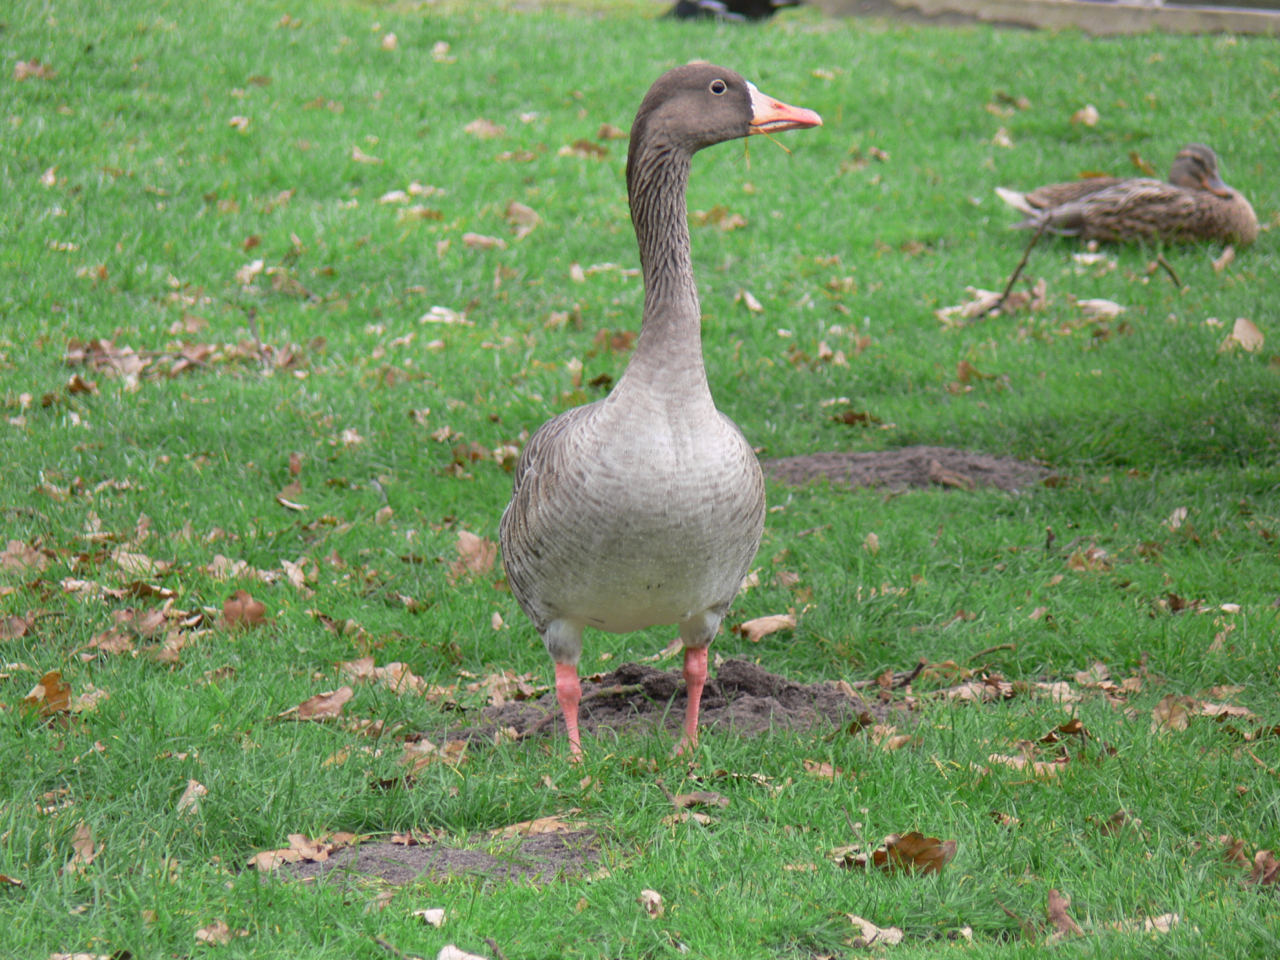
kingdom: Animalia
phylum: Chordata
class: Aves
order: Anseriformes
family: Anatidae
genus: Anser
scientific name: Anser anser
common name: Greylag goose
